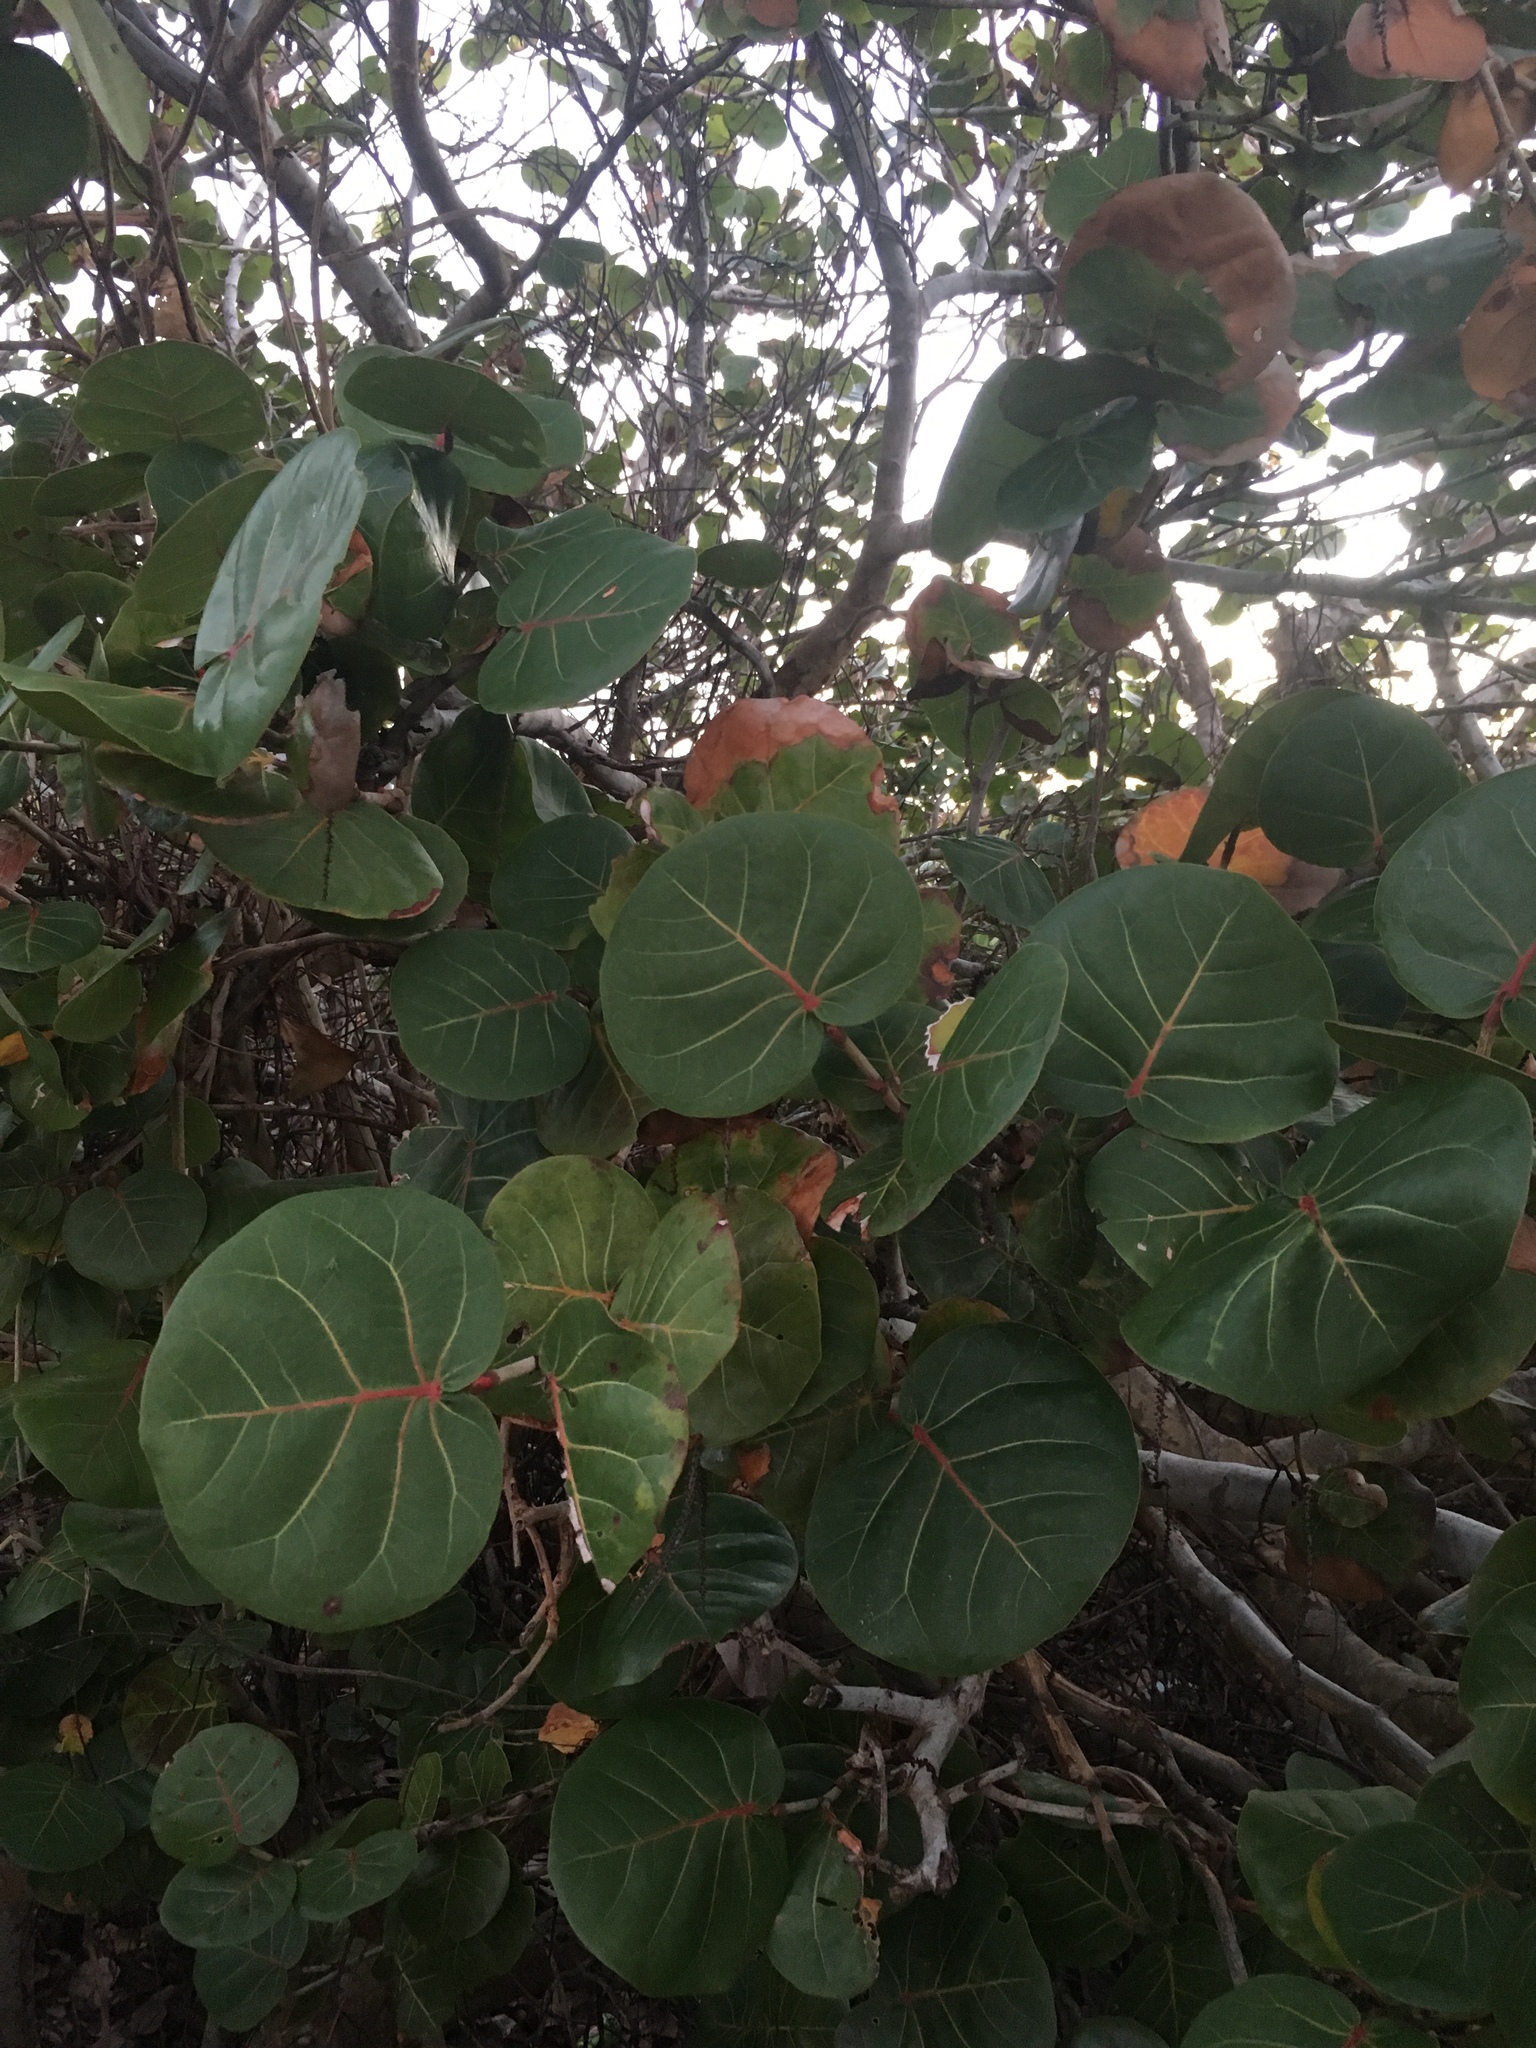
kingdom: Plantae
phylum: Tracheophyta
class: Magnoliopsida
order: Caryophyllales
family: Polygonaceae
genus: Coccoloba
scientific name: Coccoloba uvifera
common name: Seagrape
